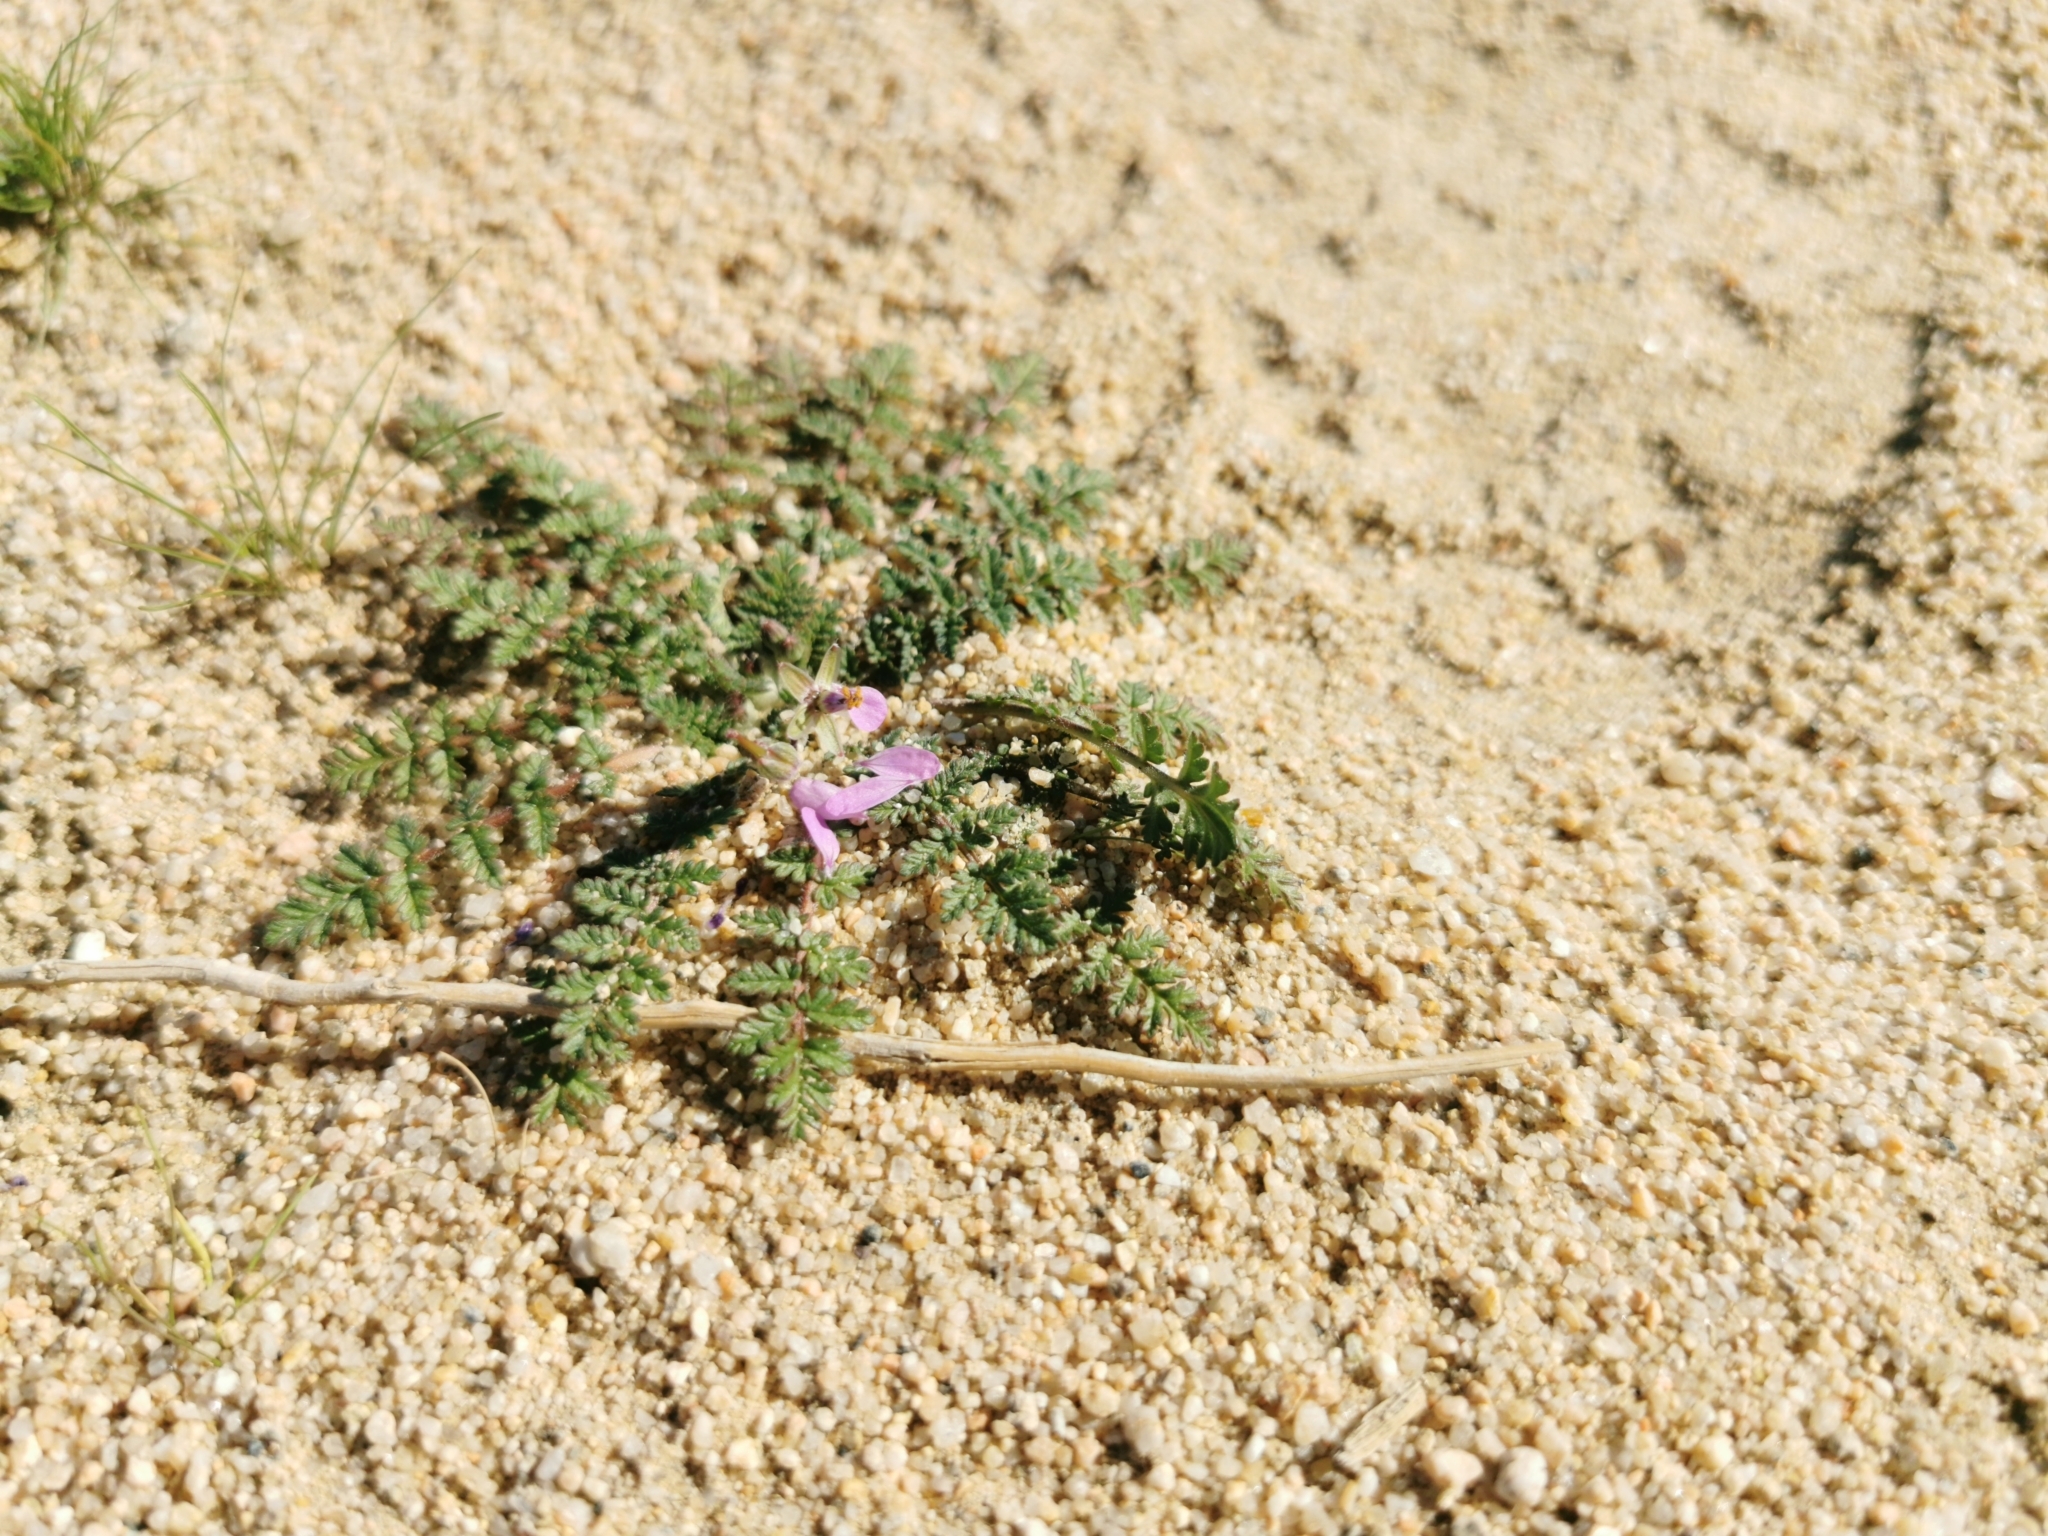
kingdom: Plantae
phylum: Tracheophyta
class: Magnoliopsida
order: Geraniales
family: Geraniaceae
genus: Erodium
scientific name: Erodium cicutarium
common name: Common stork's-bill
